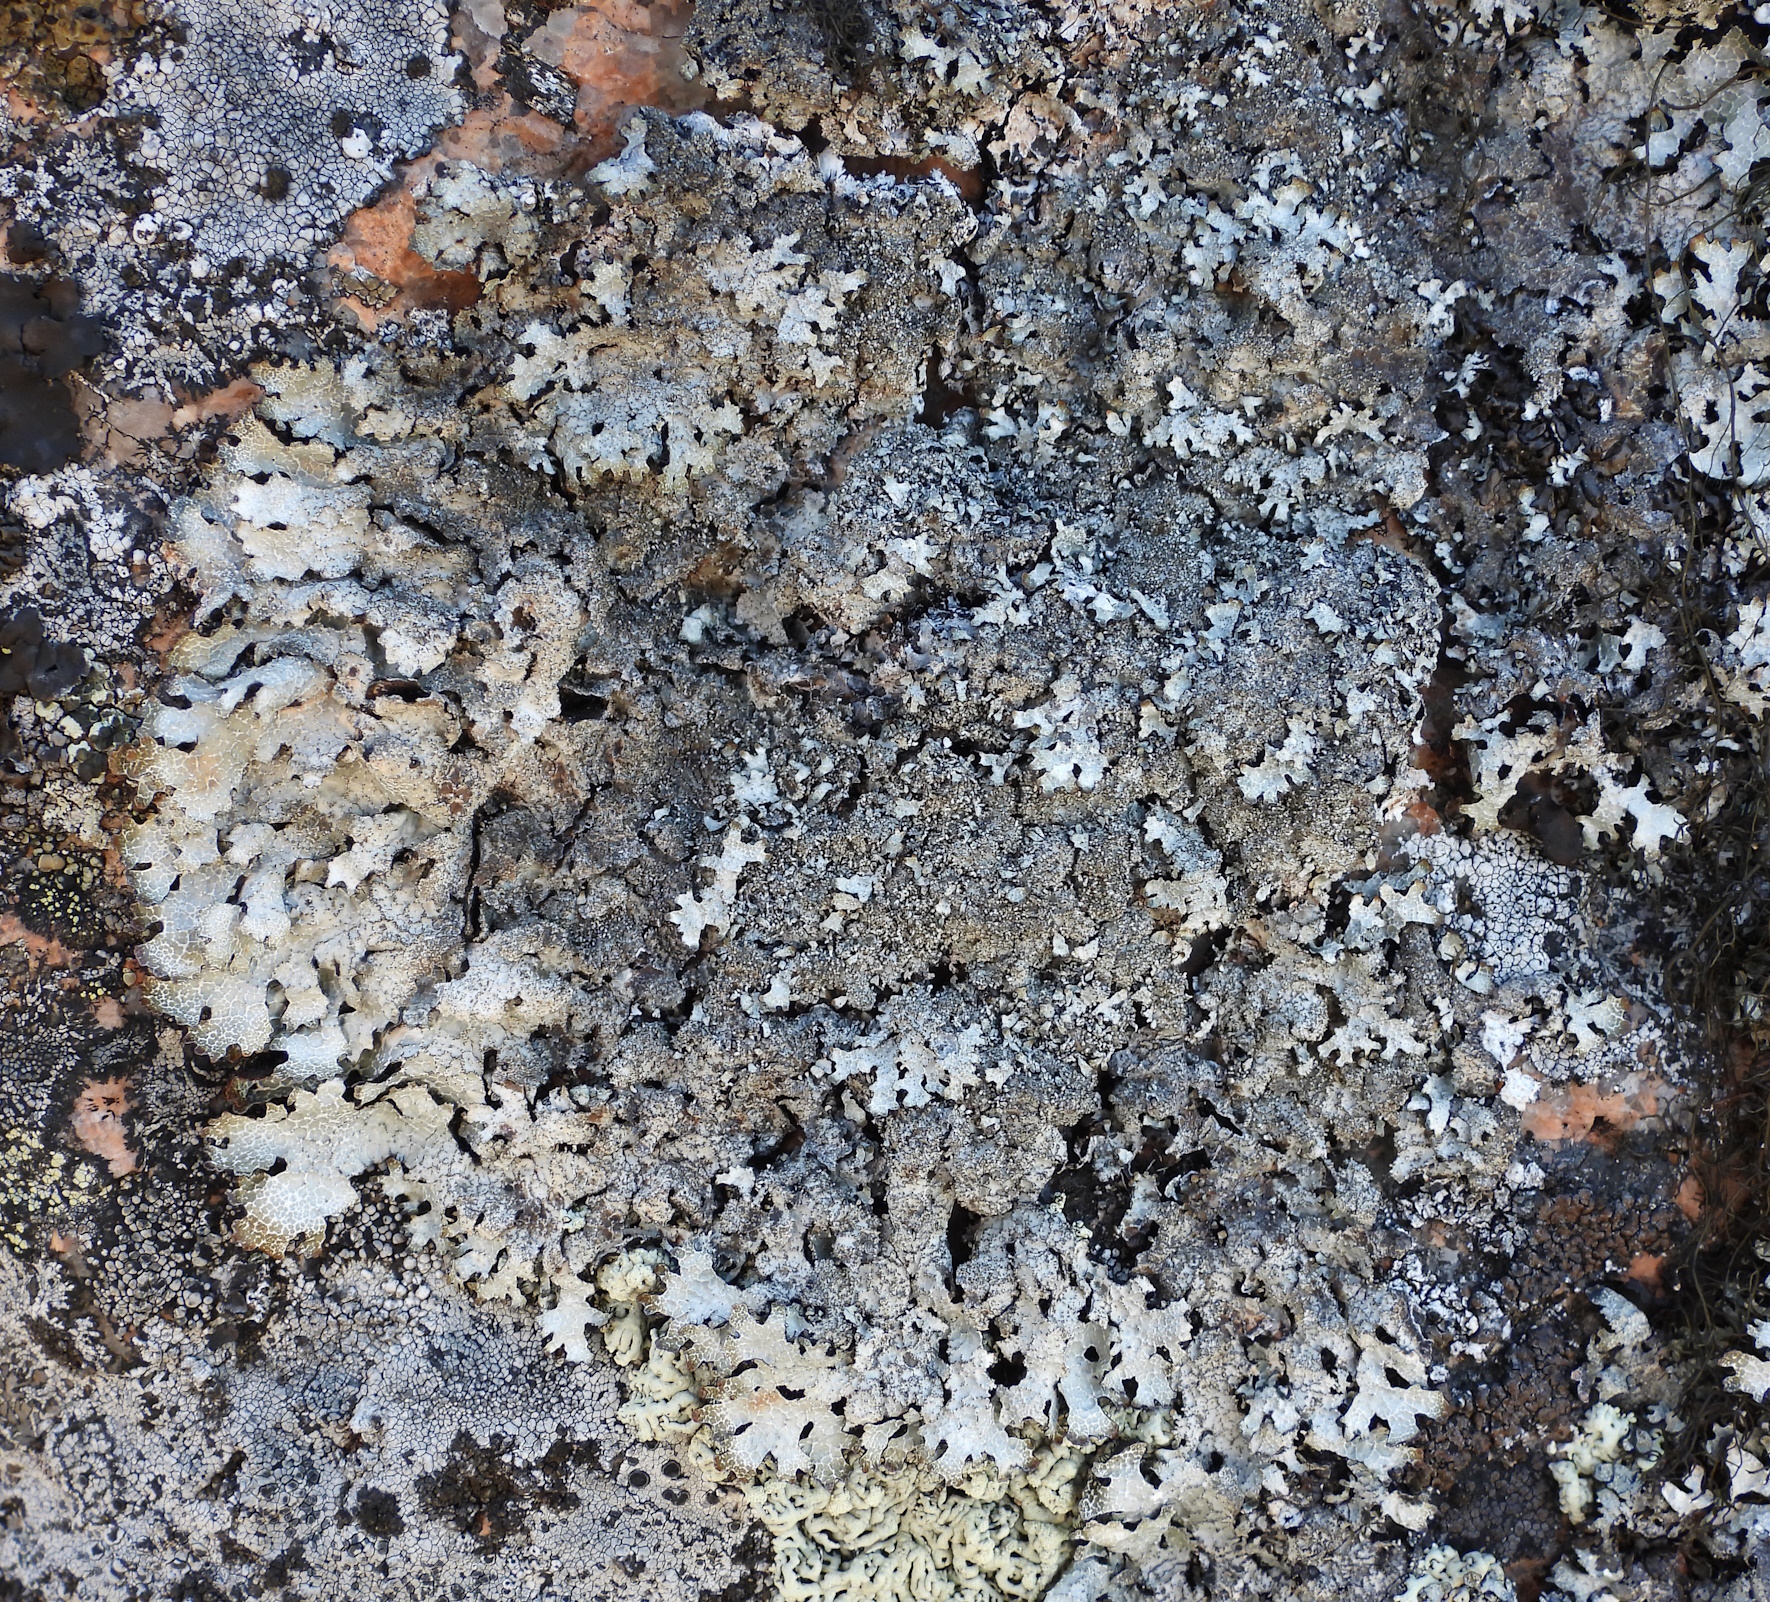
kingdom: Fungi
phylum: Ascomycota
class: Lecanoromycetes
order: Lecanorales
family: Parmeliaceae
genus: Parmelia
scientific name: Parmelia saxatilis
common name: Salted shield lichen
